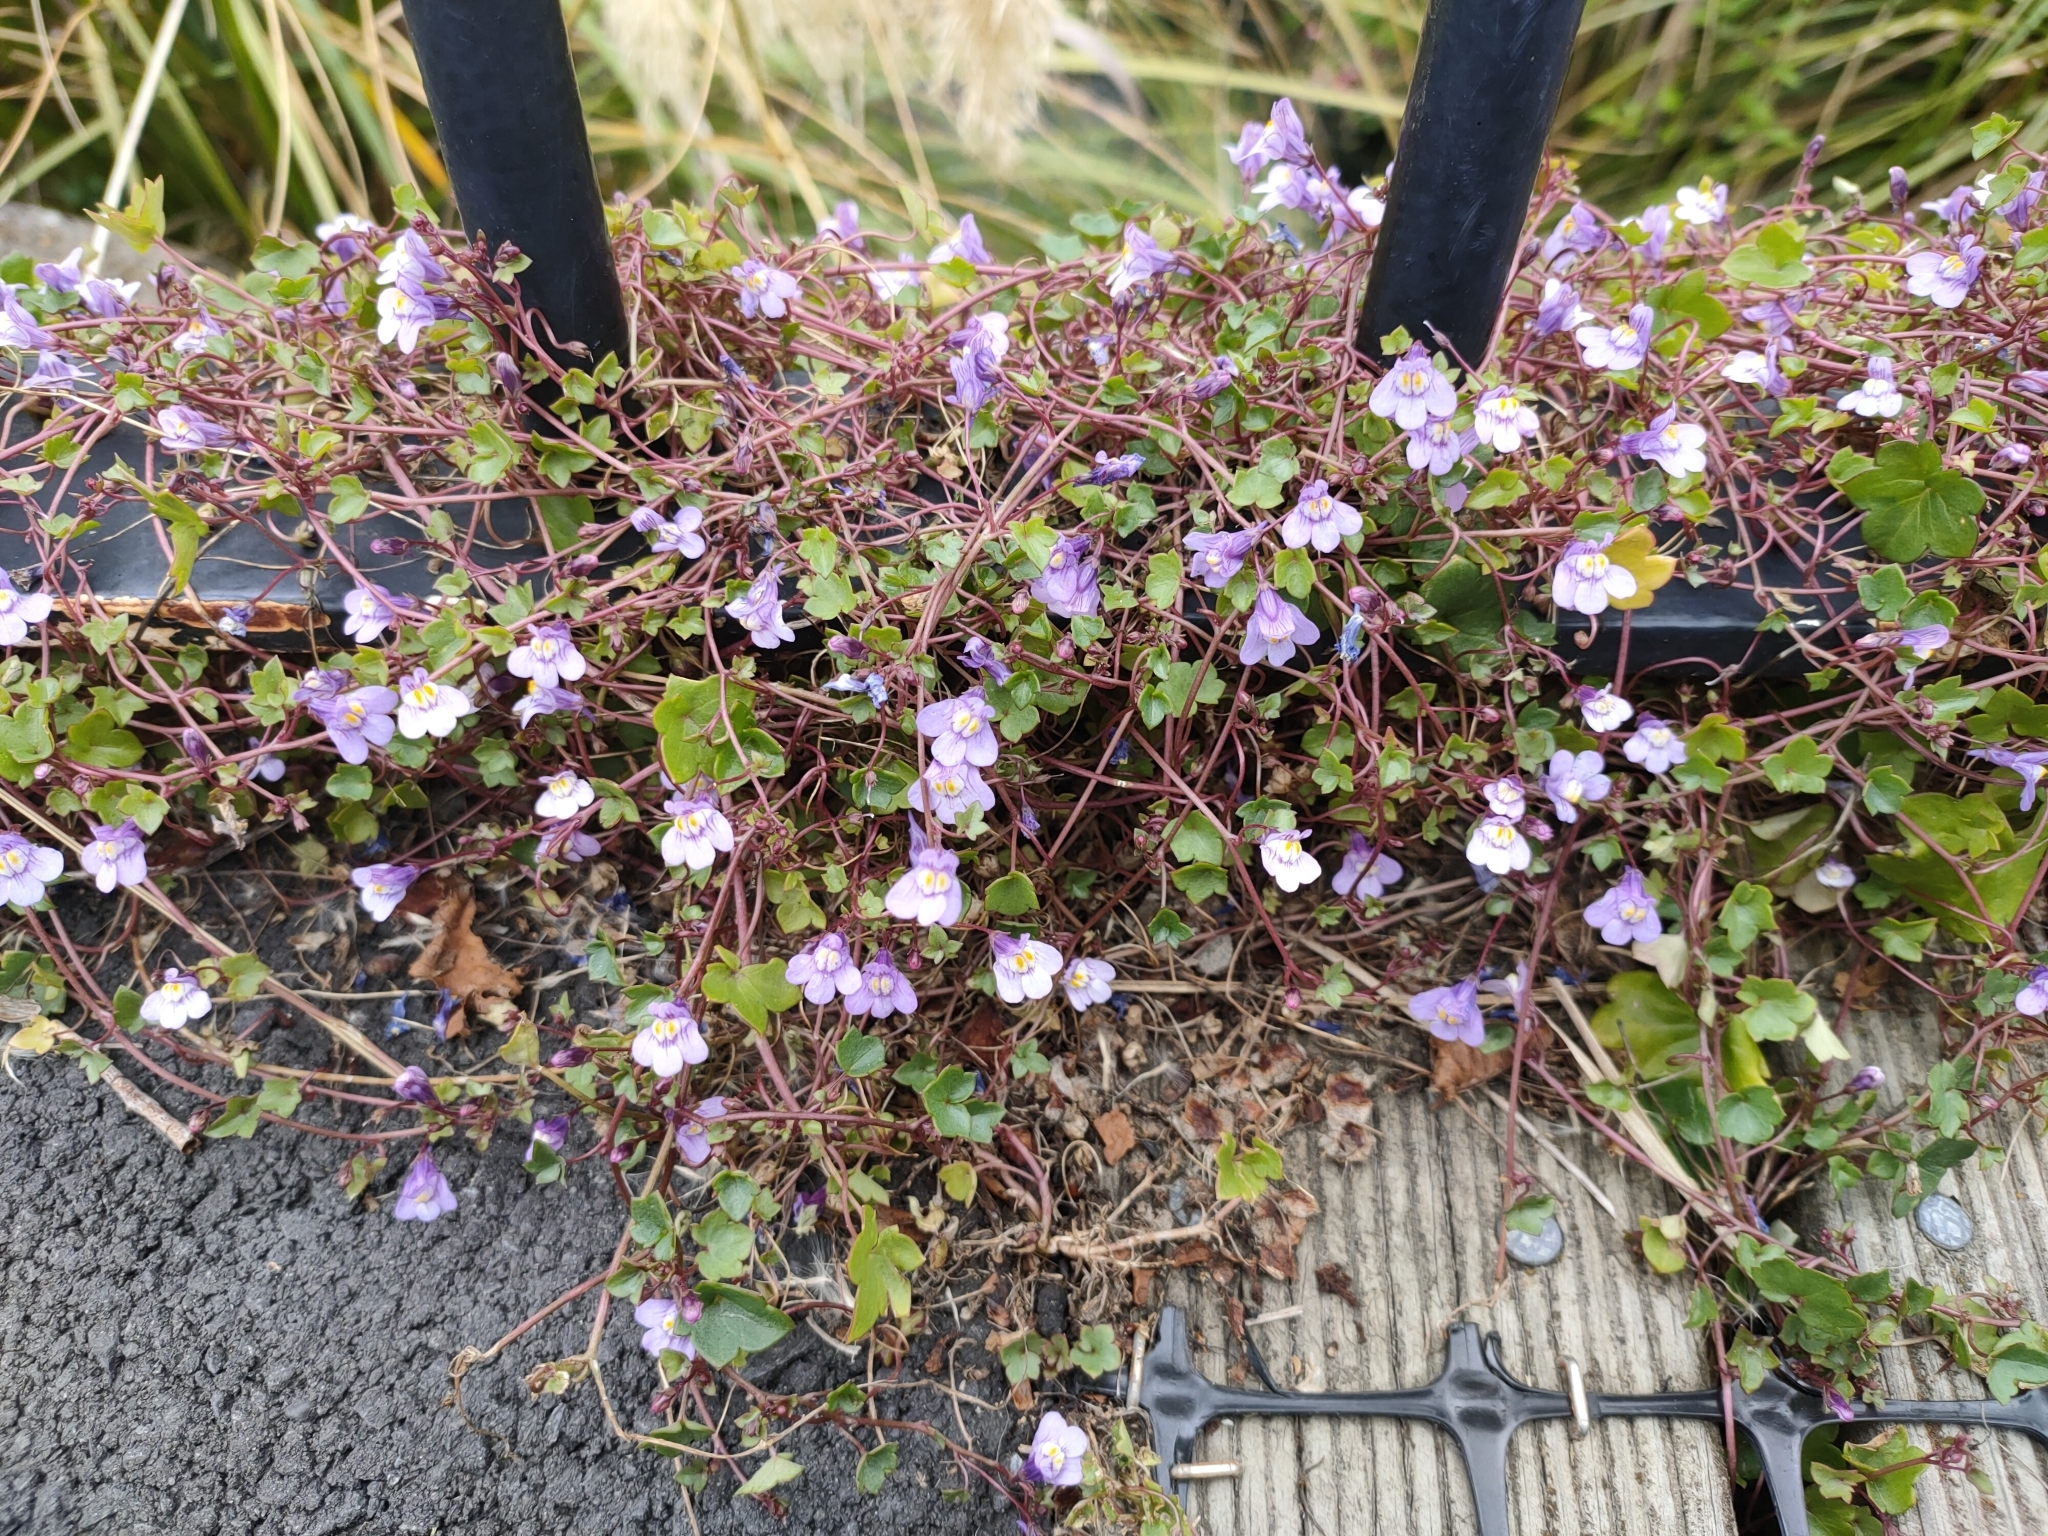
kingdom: Plantae
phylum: Tracheophyta
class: Magnoliopsida
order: Lamiales
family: Plantaginaceae
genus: Cymbalaria
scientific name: Cymbalaria muralis
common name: Ivy-leaved toadflax
